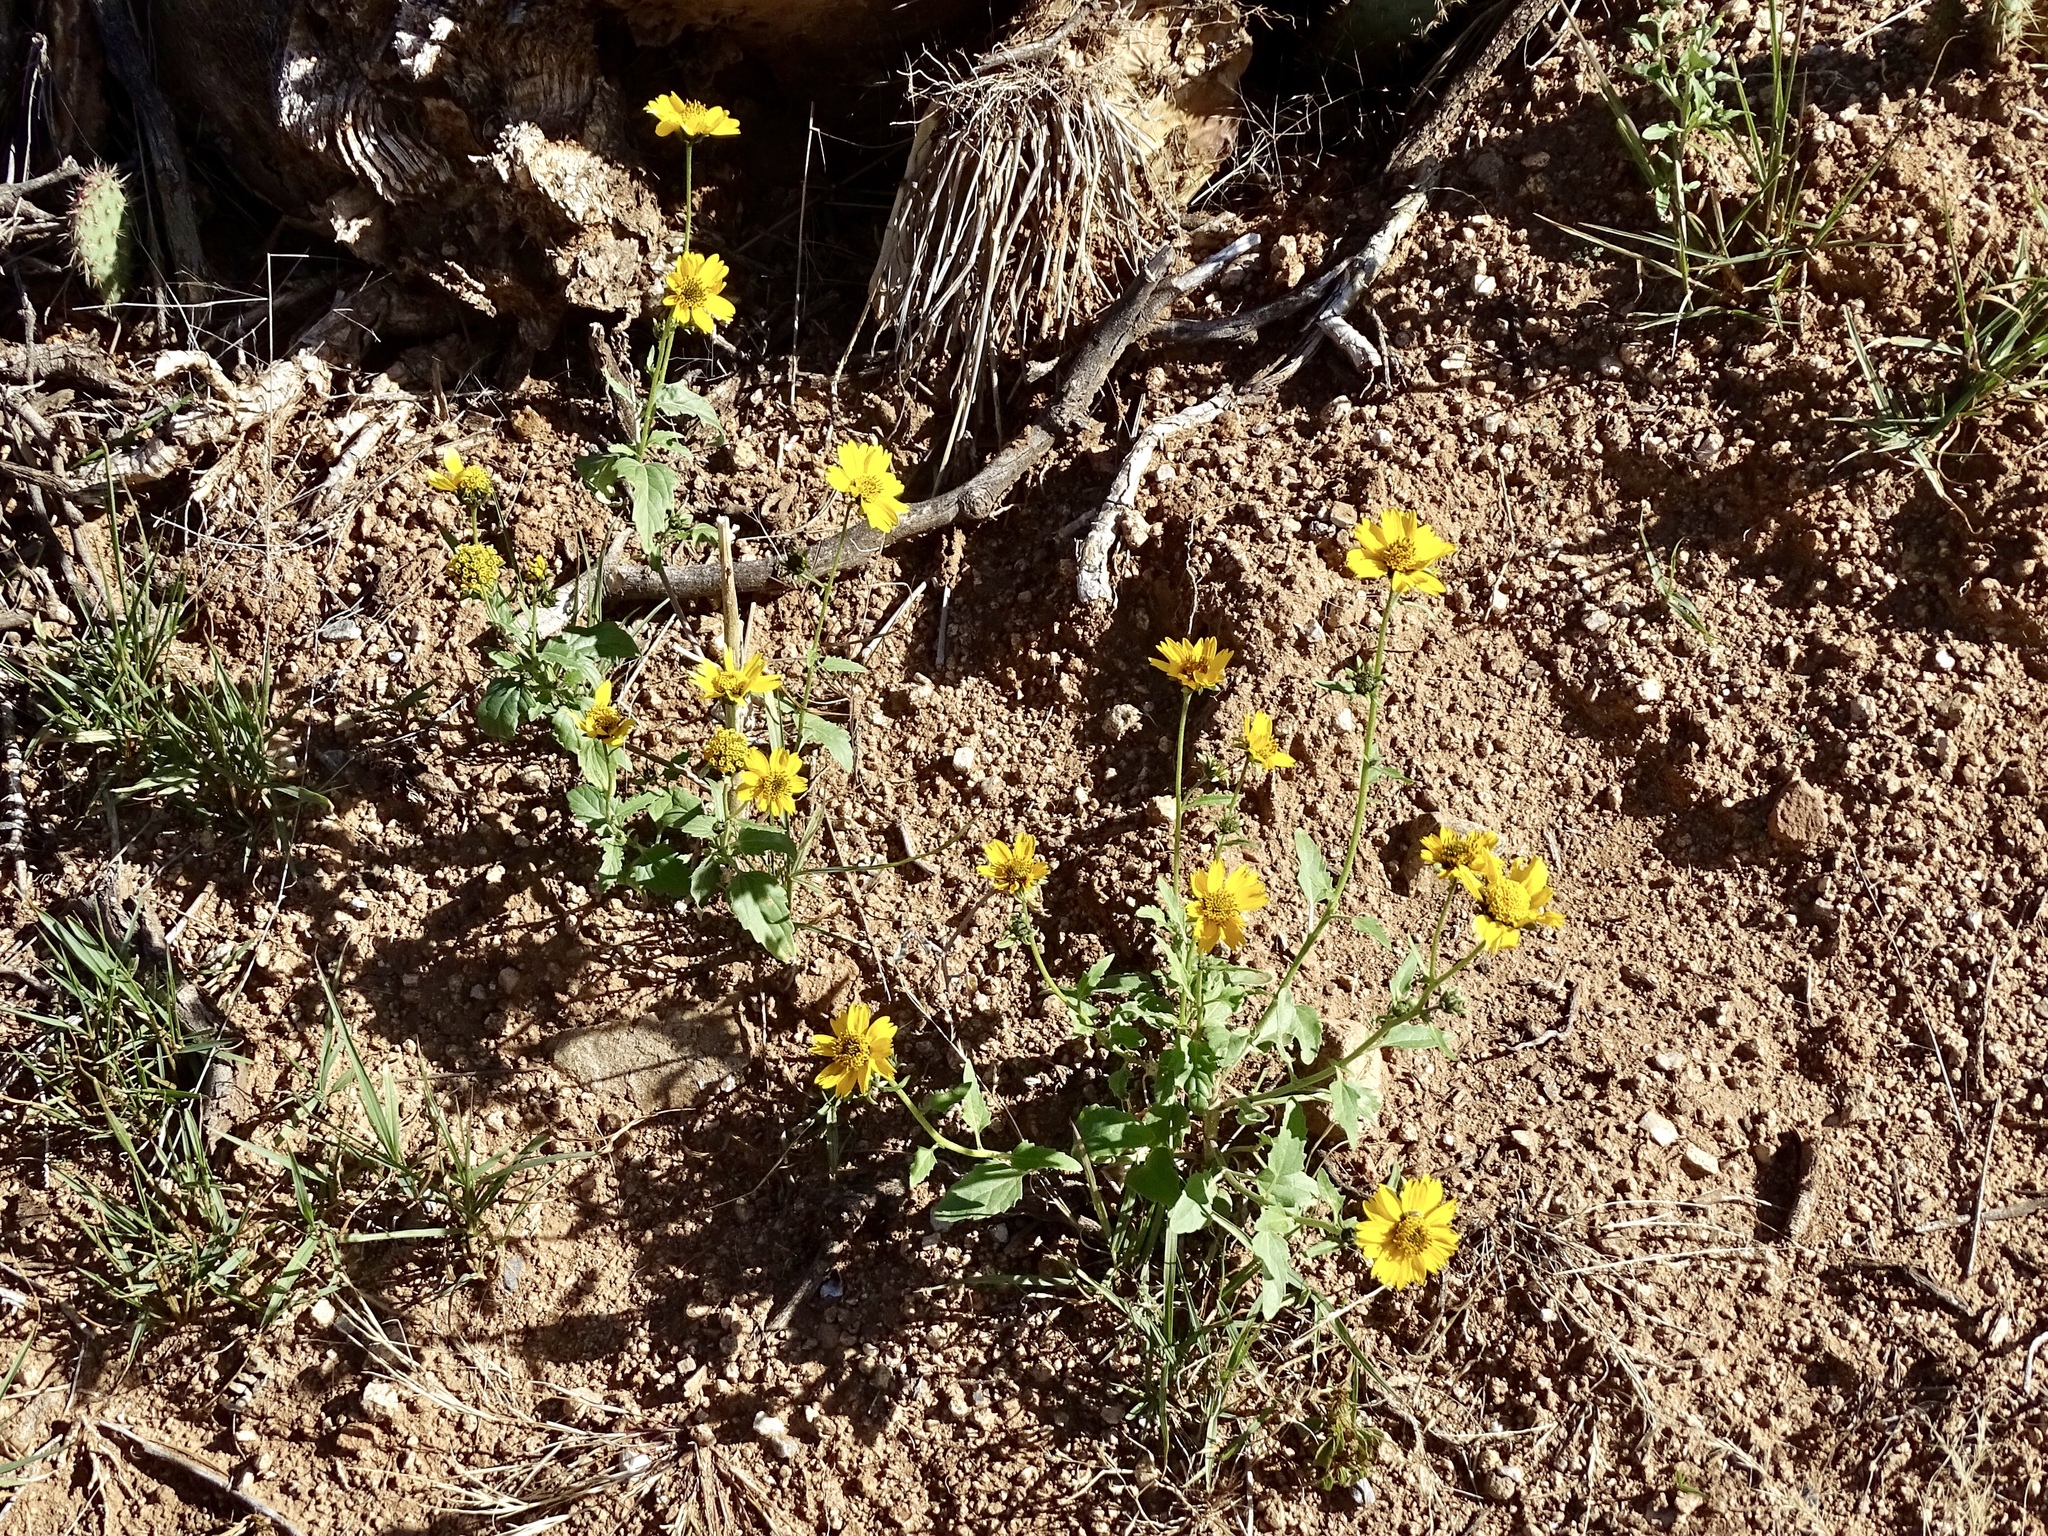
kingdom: Plantae
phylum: Tracheophyta
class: Magnoliopsida
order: Asterales
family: Asteraceae
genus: Verbesina
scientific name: Verbesina encelioides
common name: Golden crownbeard
